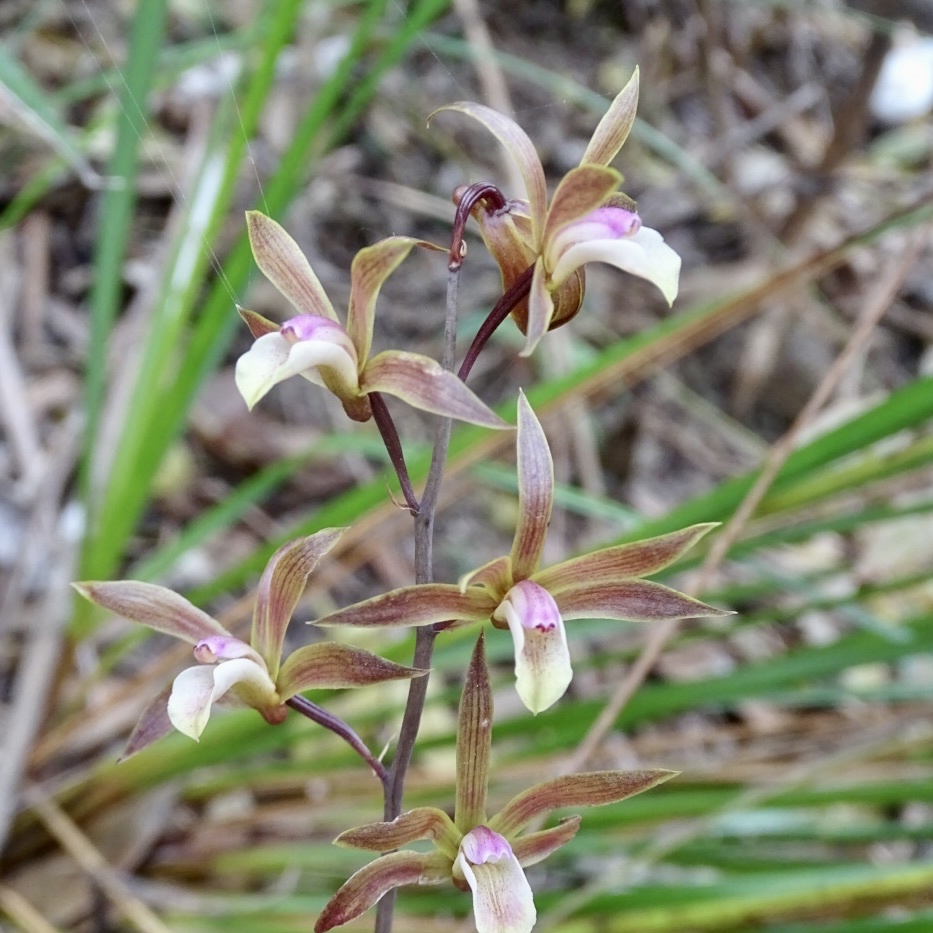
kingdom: Plantae
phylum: Tracheophyta
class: Liliopsida
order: Asparagales
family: Orchidaceae
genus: Ania
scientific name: Ania hongkongensis
